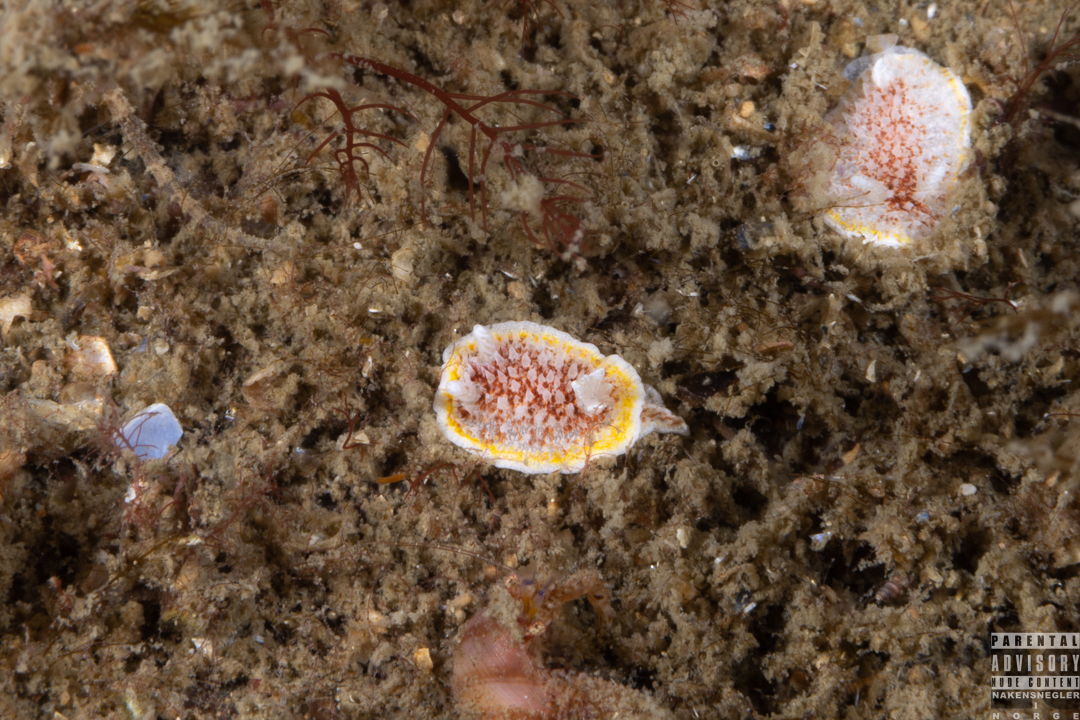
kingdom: Animalia
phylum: Mollusca
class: Gastropoda
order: Nudibranchia
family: Calycidorididae
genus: Diaphorodoris
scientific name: Diaphorodoris luteocincta
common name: Fried egg nudibranch
